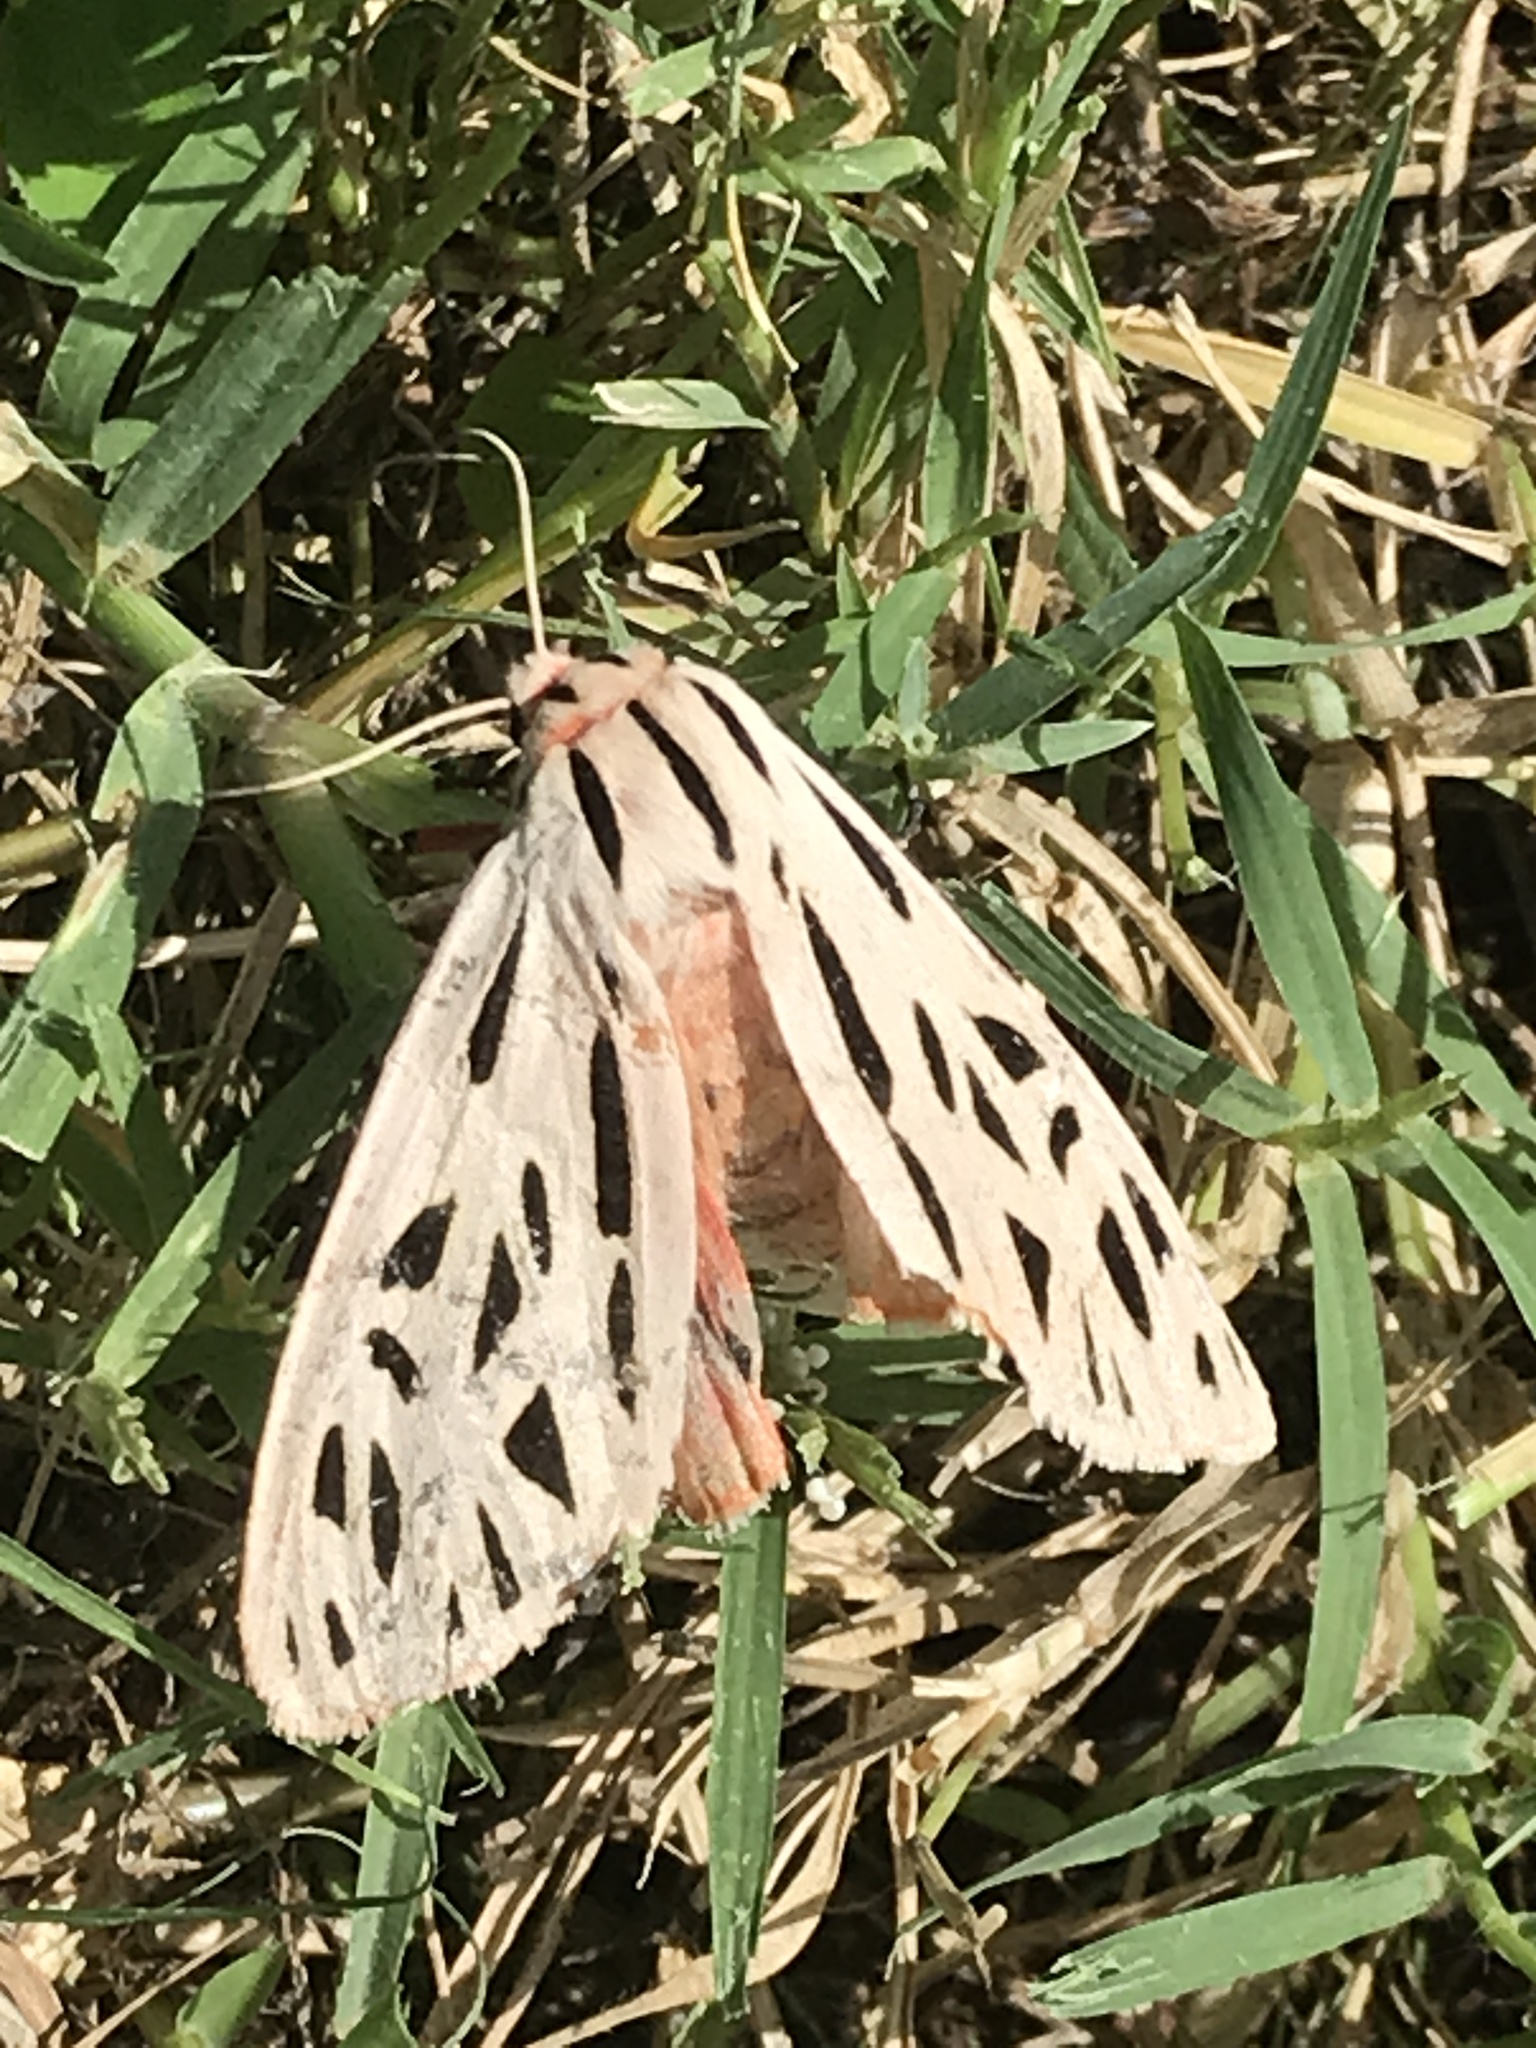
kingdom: Animalia
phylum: Arthropoda
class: Insecta
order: Lepidoptera
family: Erebidae
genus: Apantesis
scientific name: Apantesis arge
